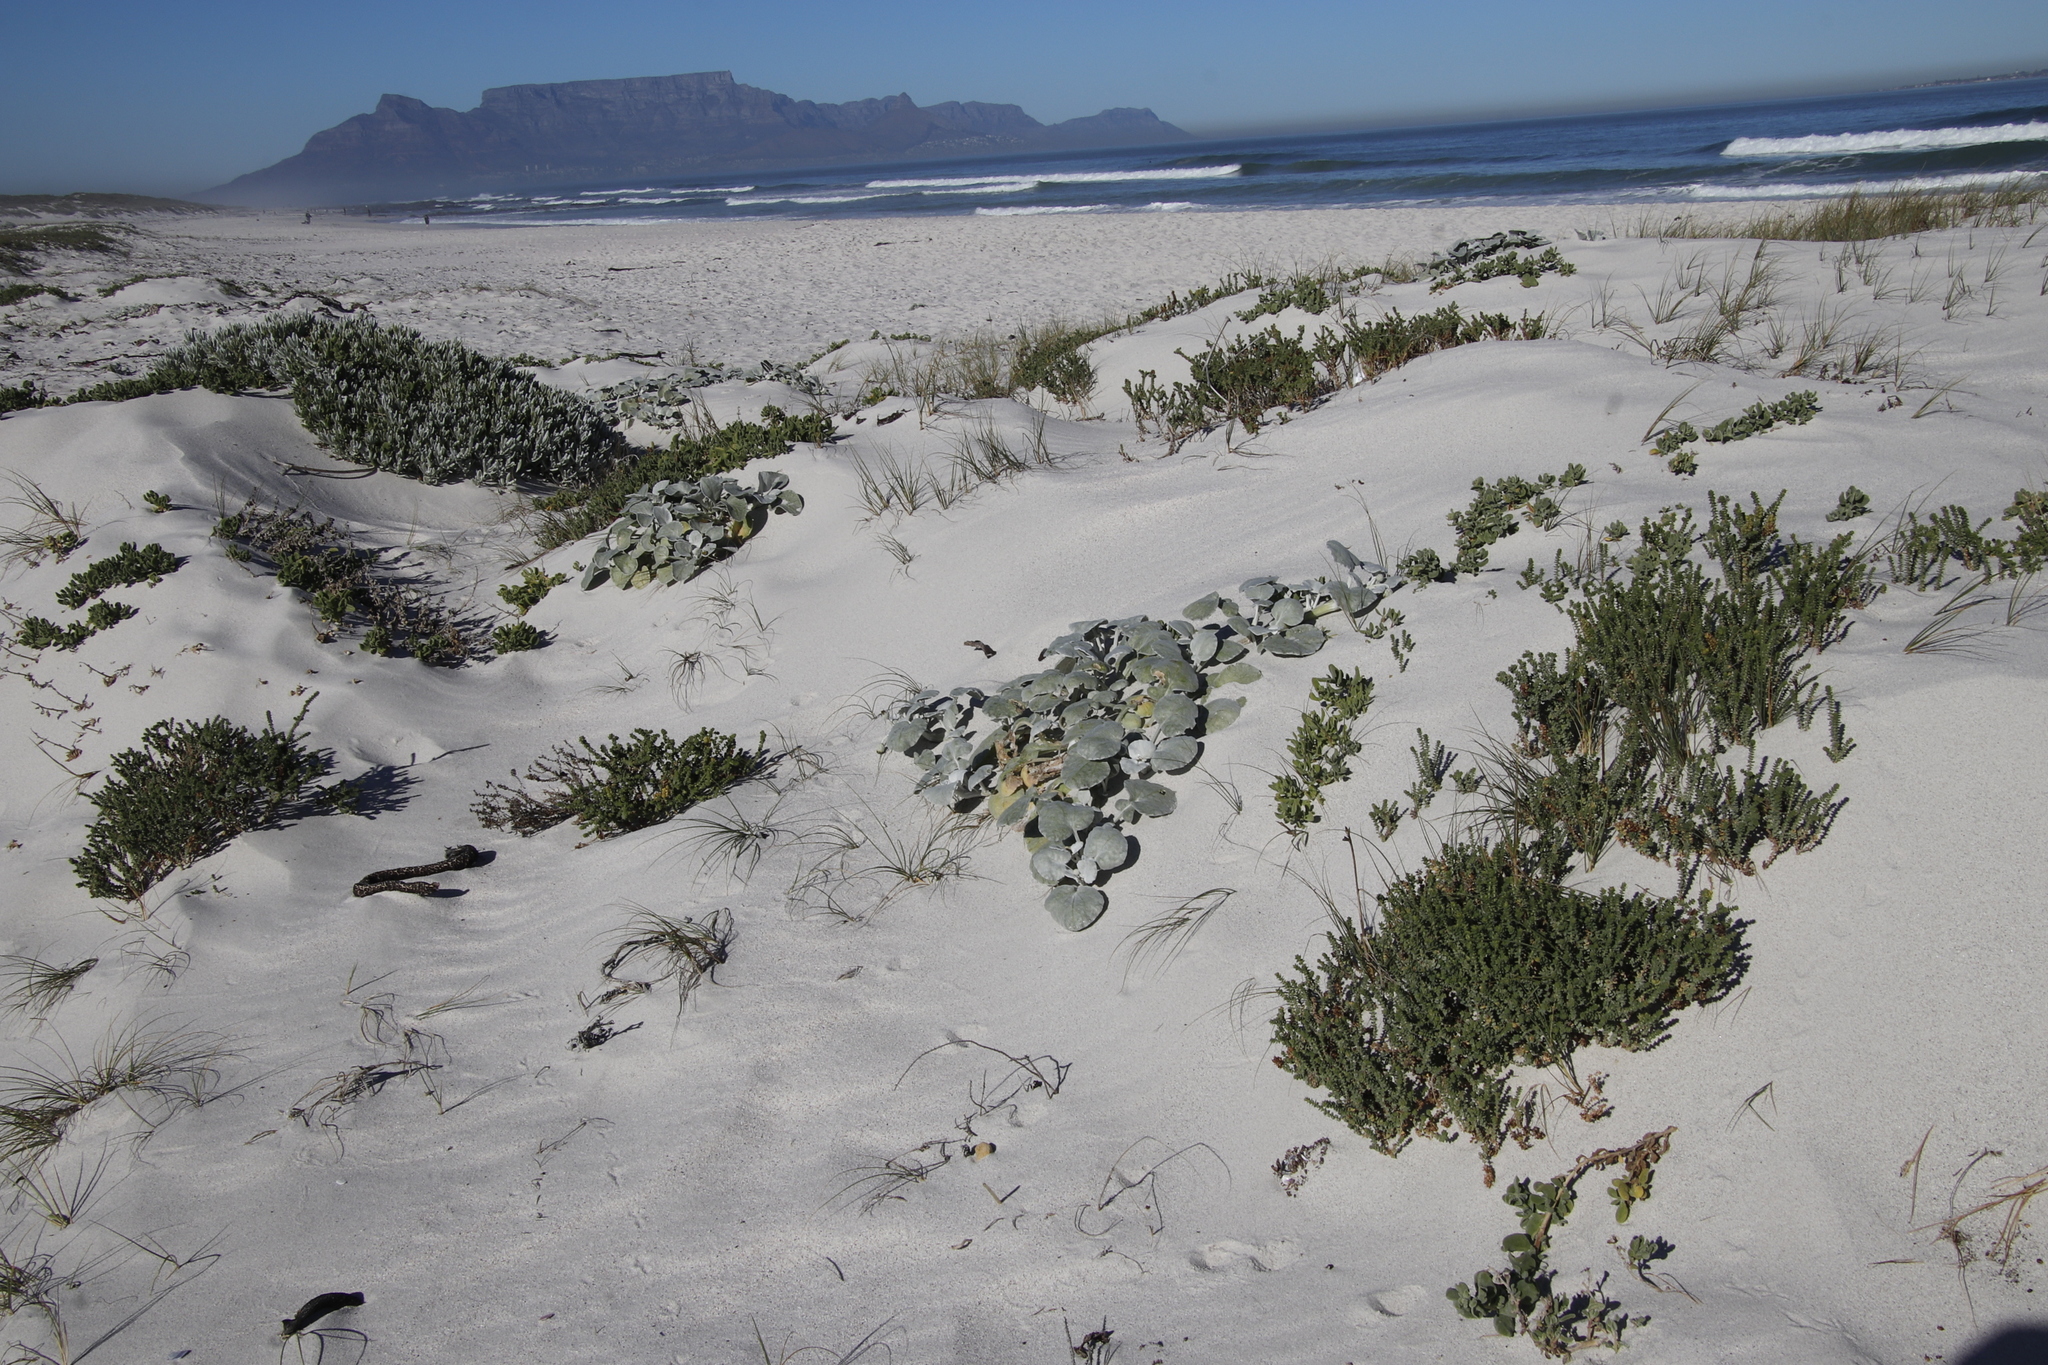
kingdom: Plantae
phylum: Tracheophyta
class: Magnoliopsida
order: Asterales
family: Asteraceae
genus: Arctotheca
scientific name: Arctotheca populifolia
